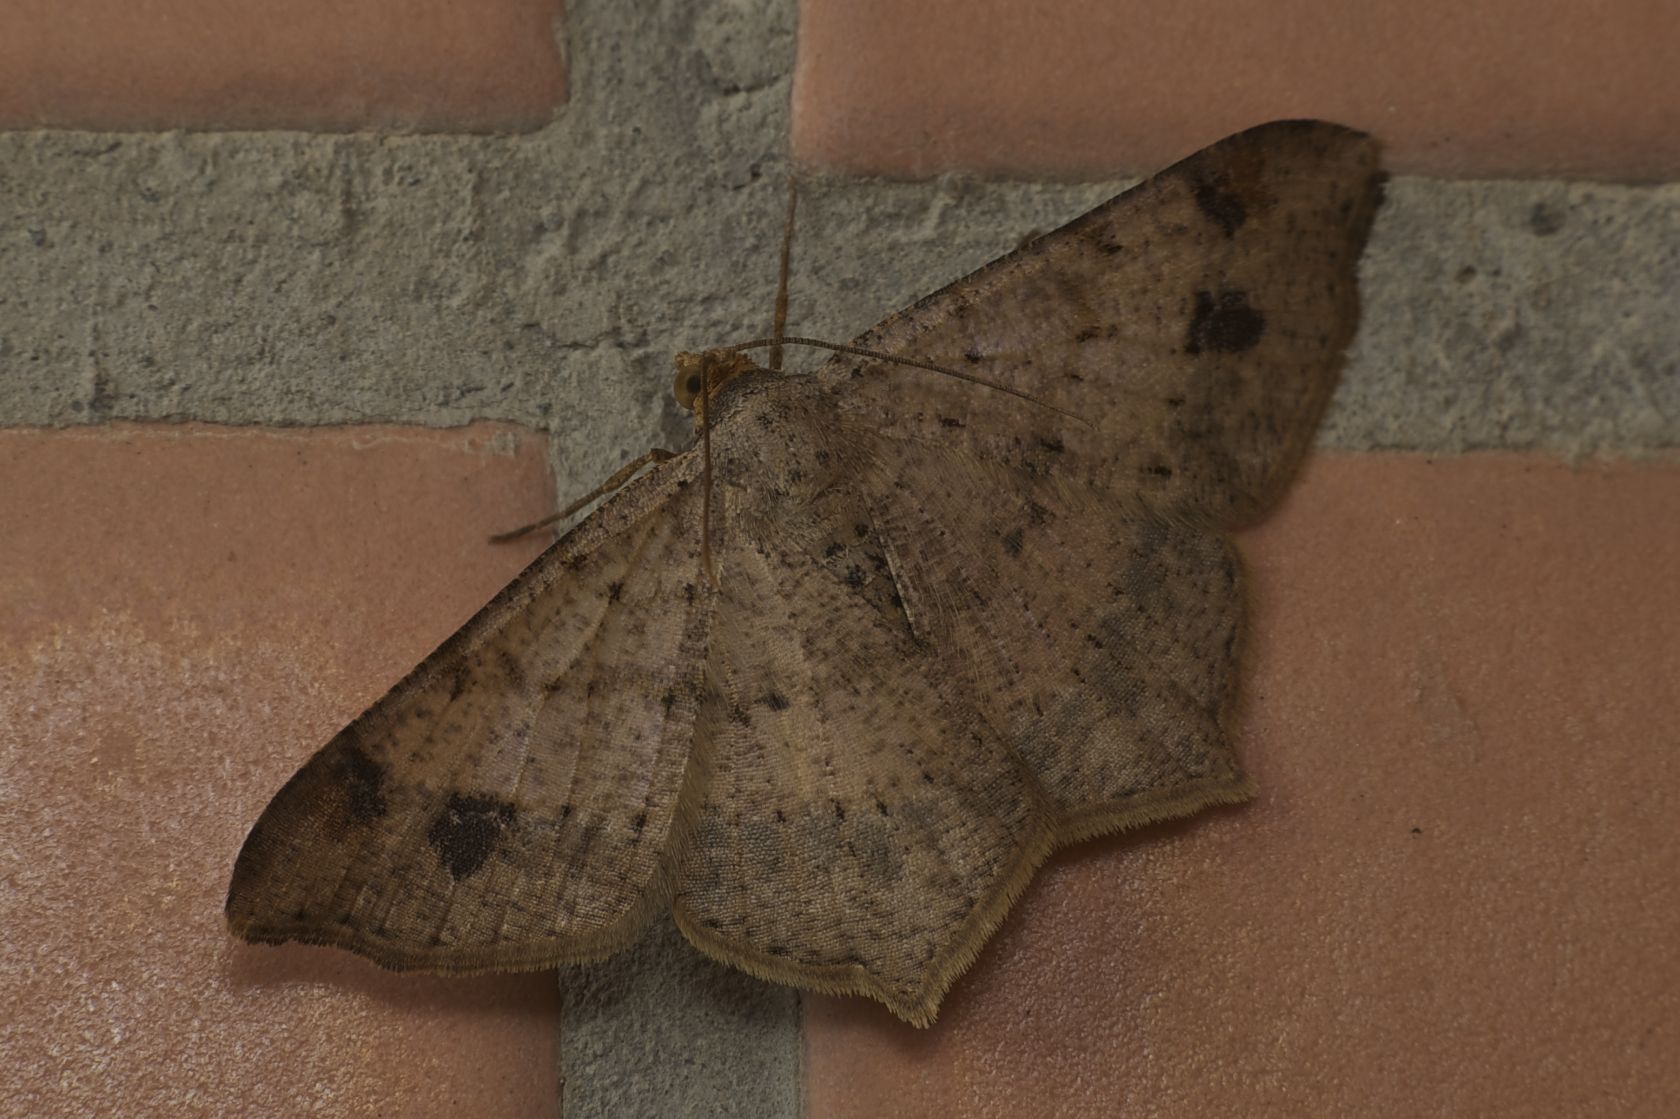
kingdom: Animalia
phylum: Arthropoda
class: Insecta
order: Lepidoptera
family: Geometridae
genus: Macaria
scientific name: Macaria abydata
